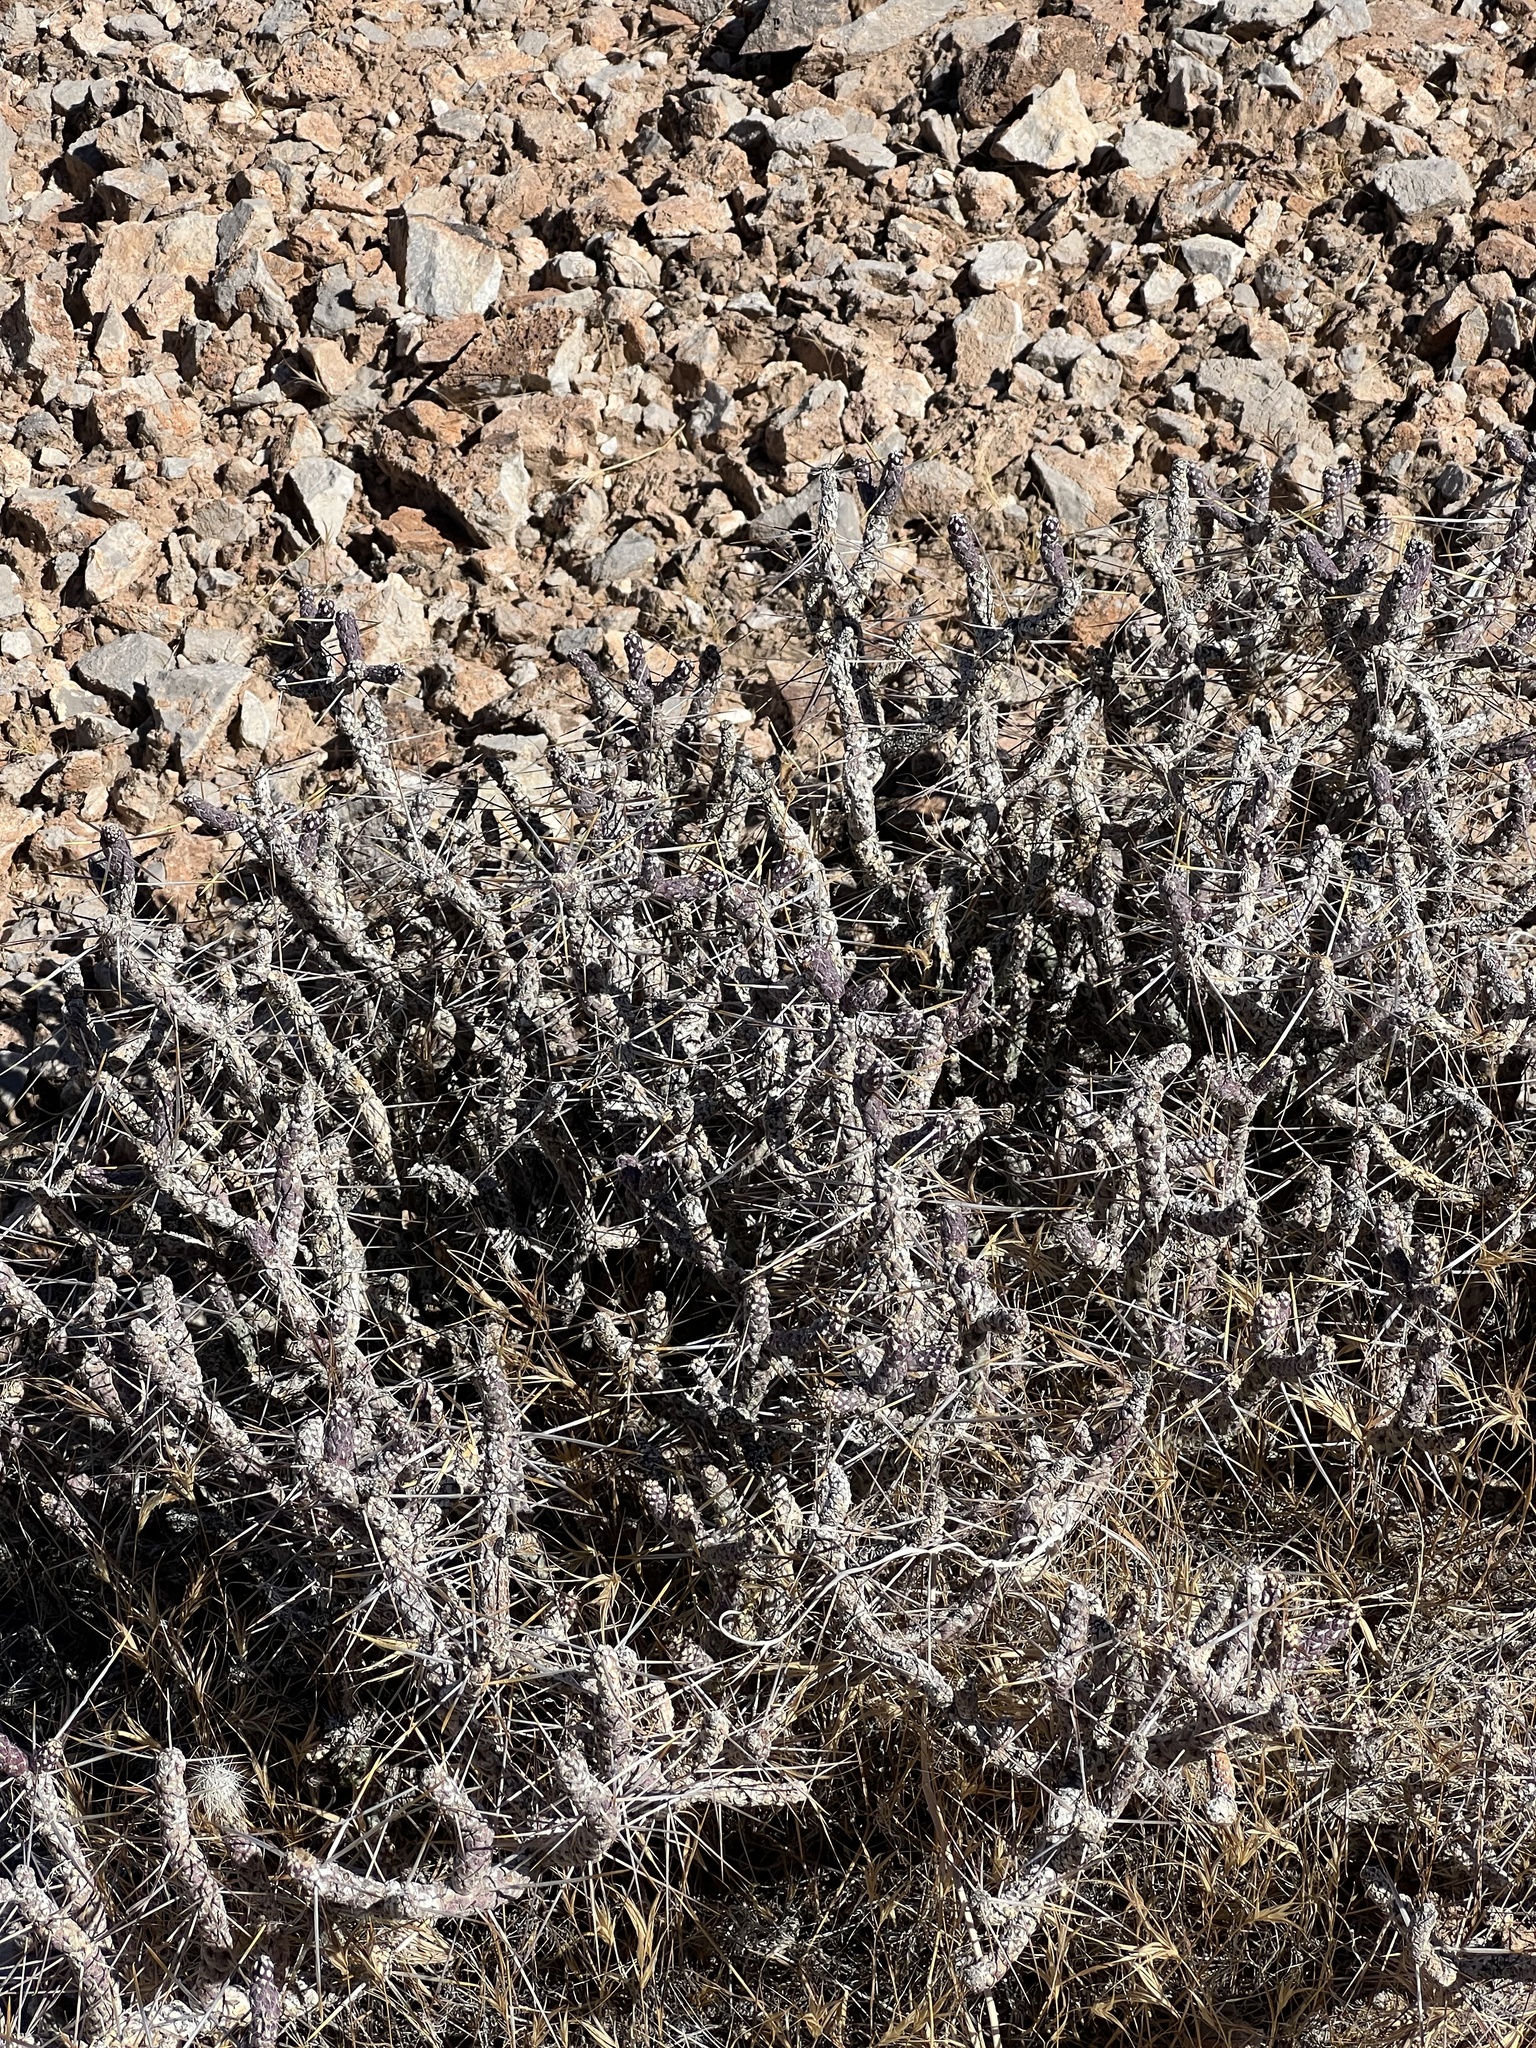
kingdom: Plantae
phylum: Tracheophyta
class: Magnoliopsida
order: Caryophyllales
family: Cactaceae
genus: Cylindropuntia
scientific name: Cylindropuntia ramosissima
